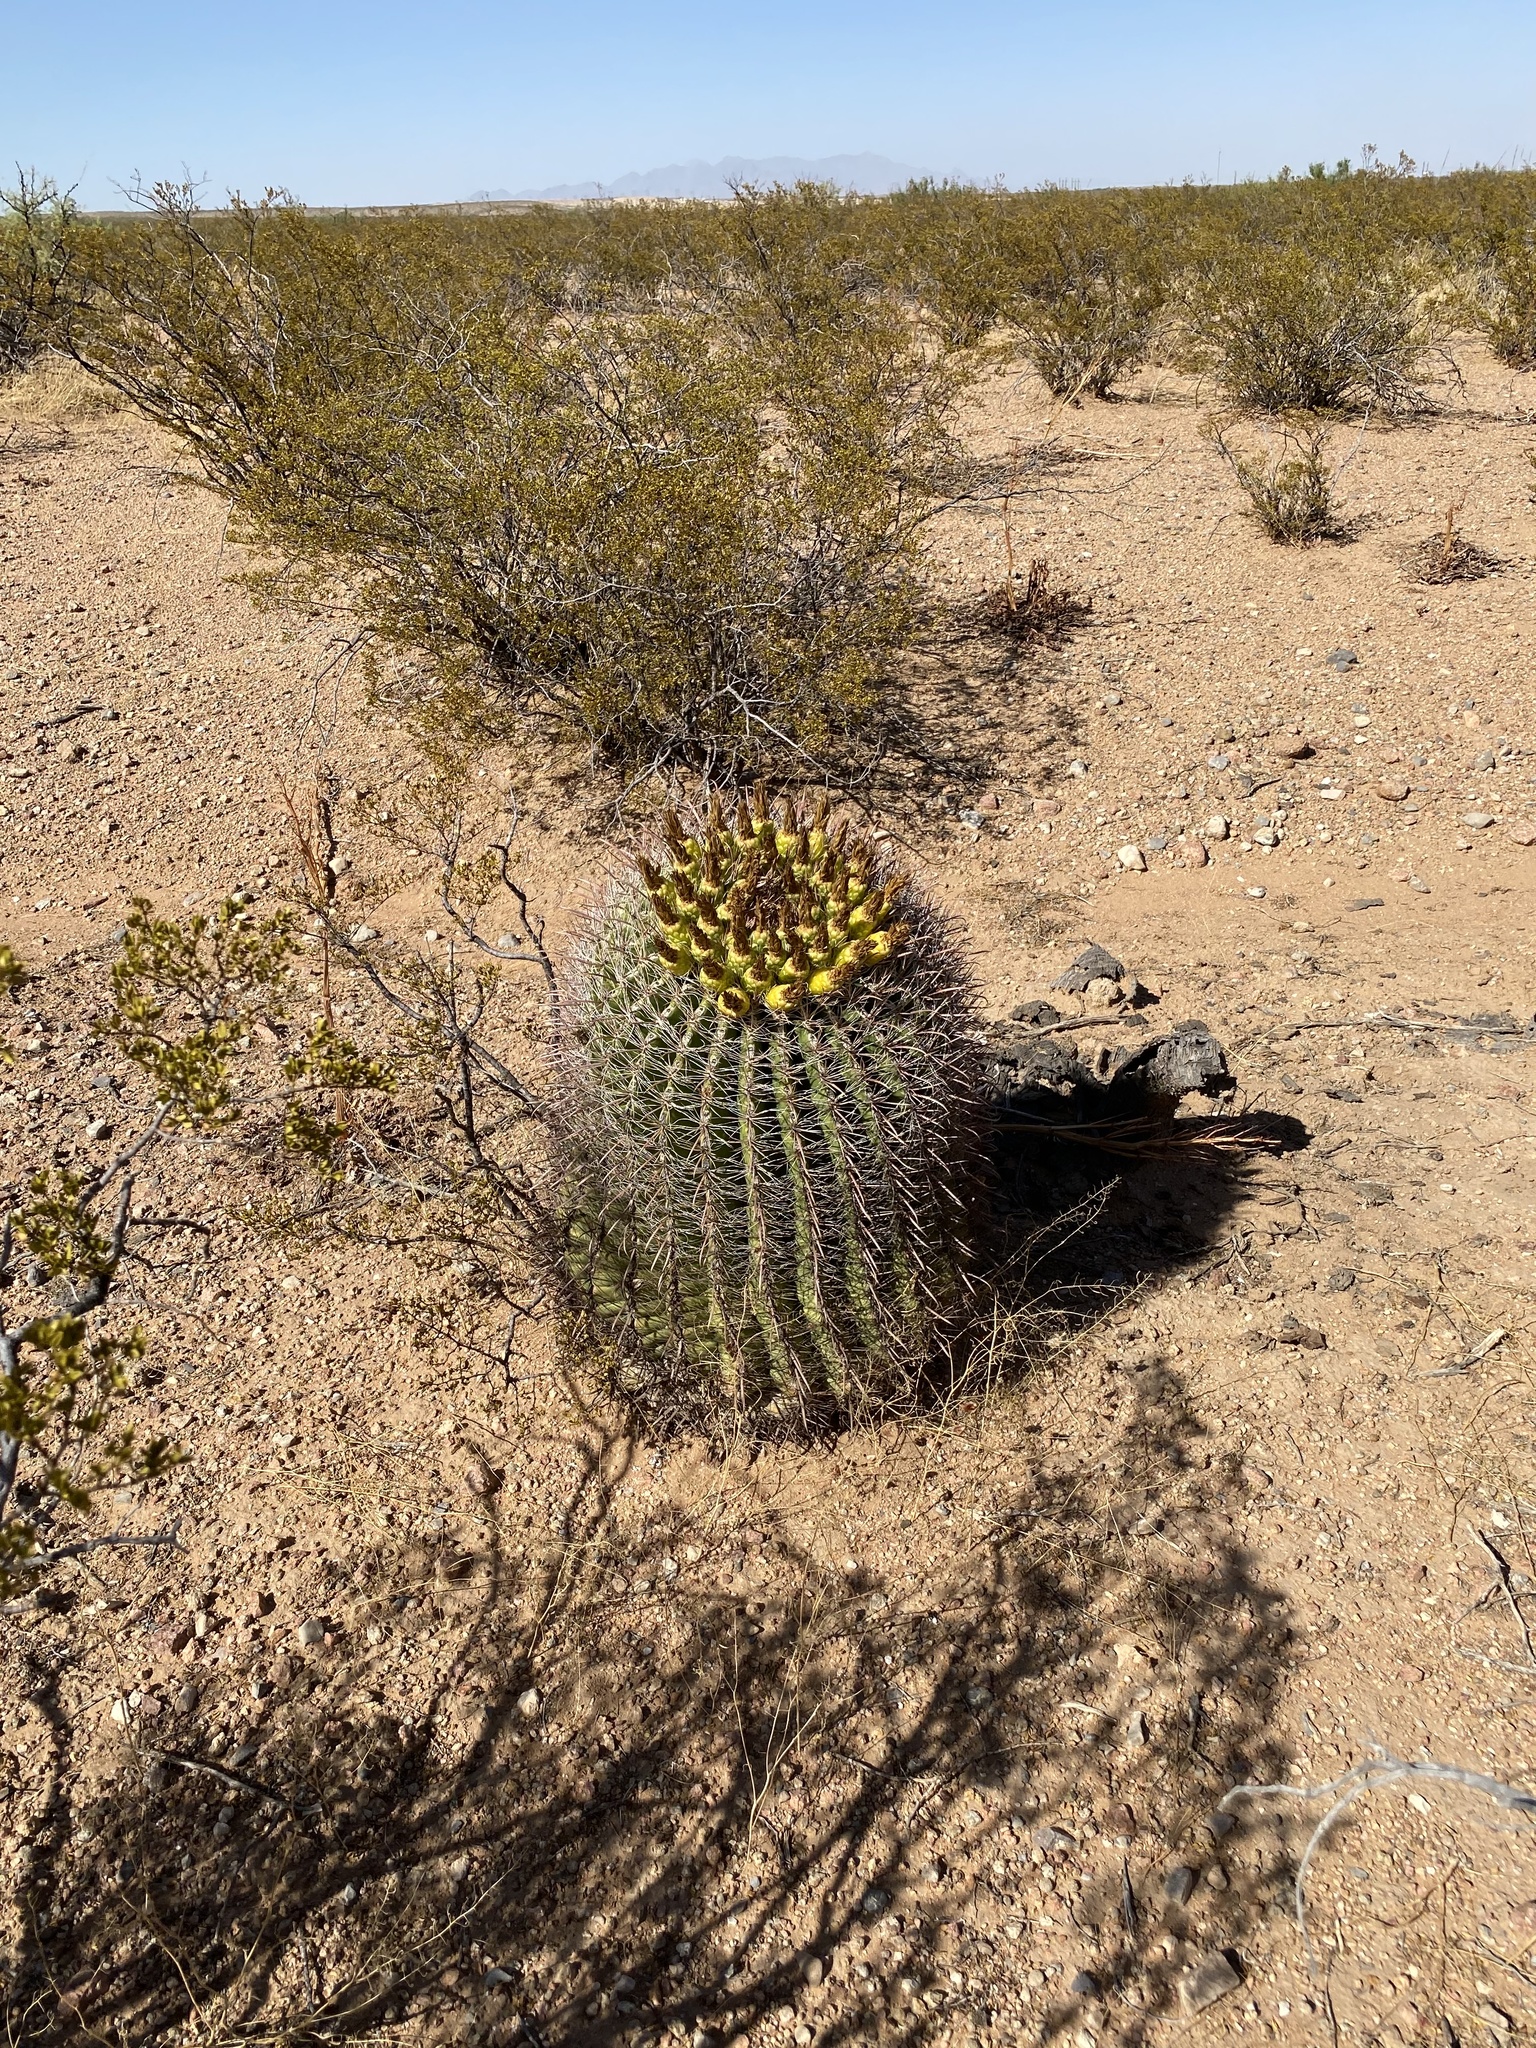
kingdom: Plantae
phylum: Tracheophyta
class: Magnoliopsida
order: Caryophyllales
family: Cactaceae
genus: Ferocactus
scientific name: Ferocactus wislizeni
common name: Candy barrel cactus
